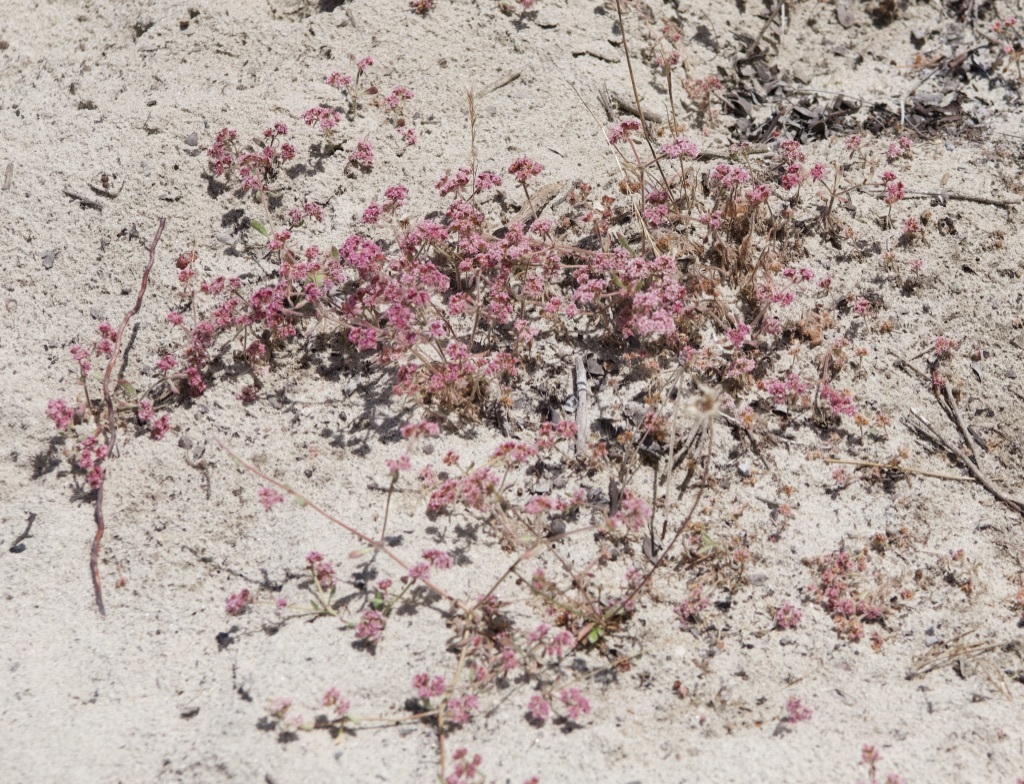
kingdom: Plantae
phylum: Tracheophyta
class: Magnoliopsida
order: Caryophyllales
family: Polygonaceae
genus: Chorizanthe
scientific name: Chorizanthe pungens
